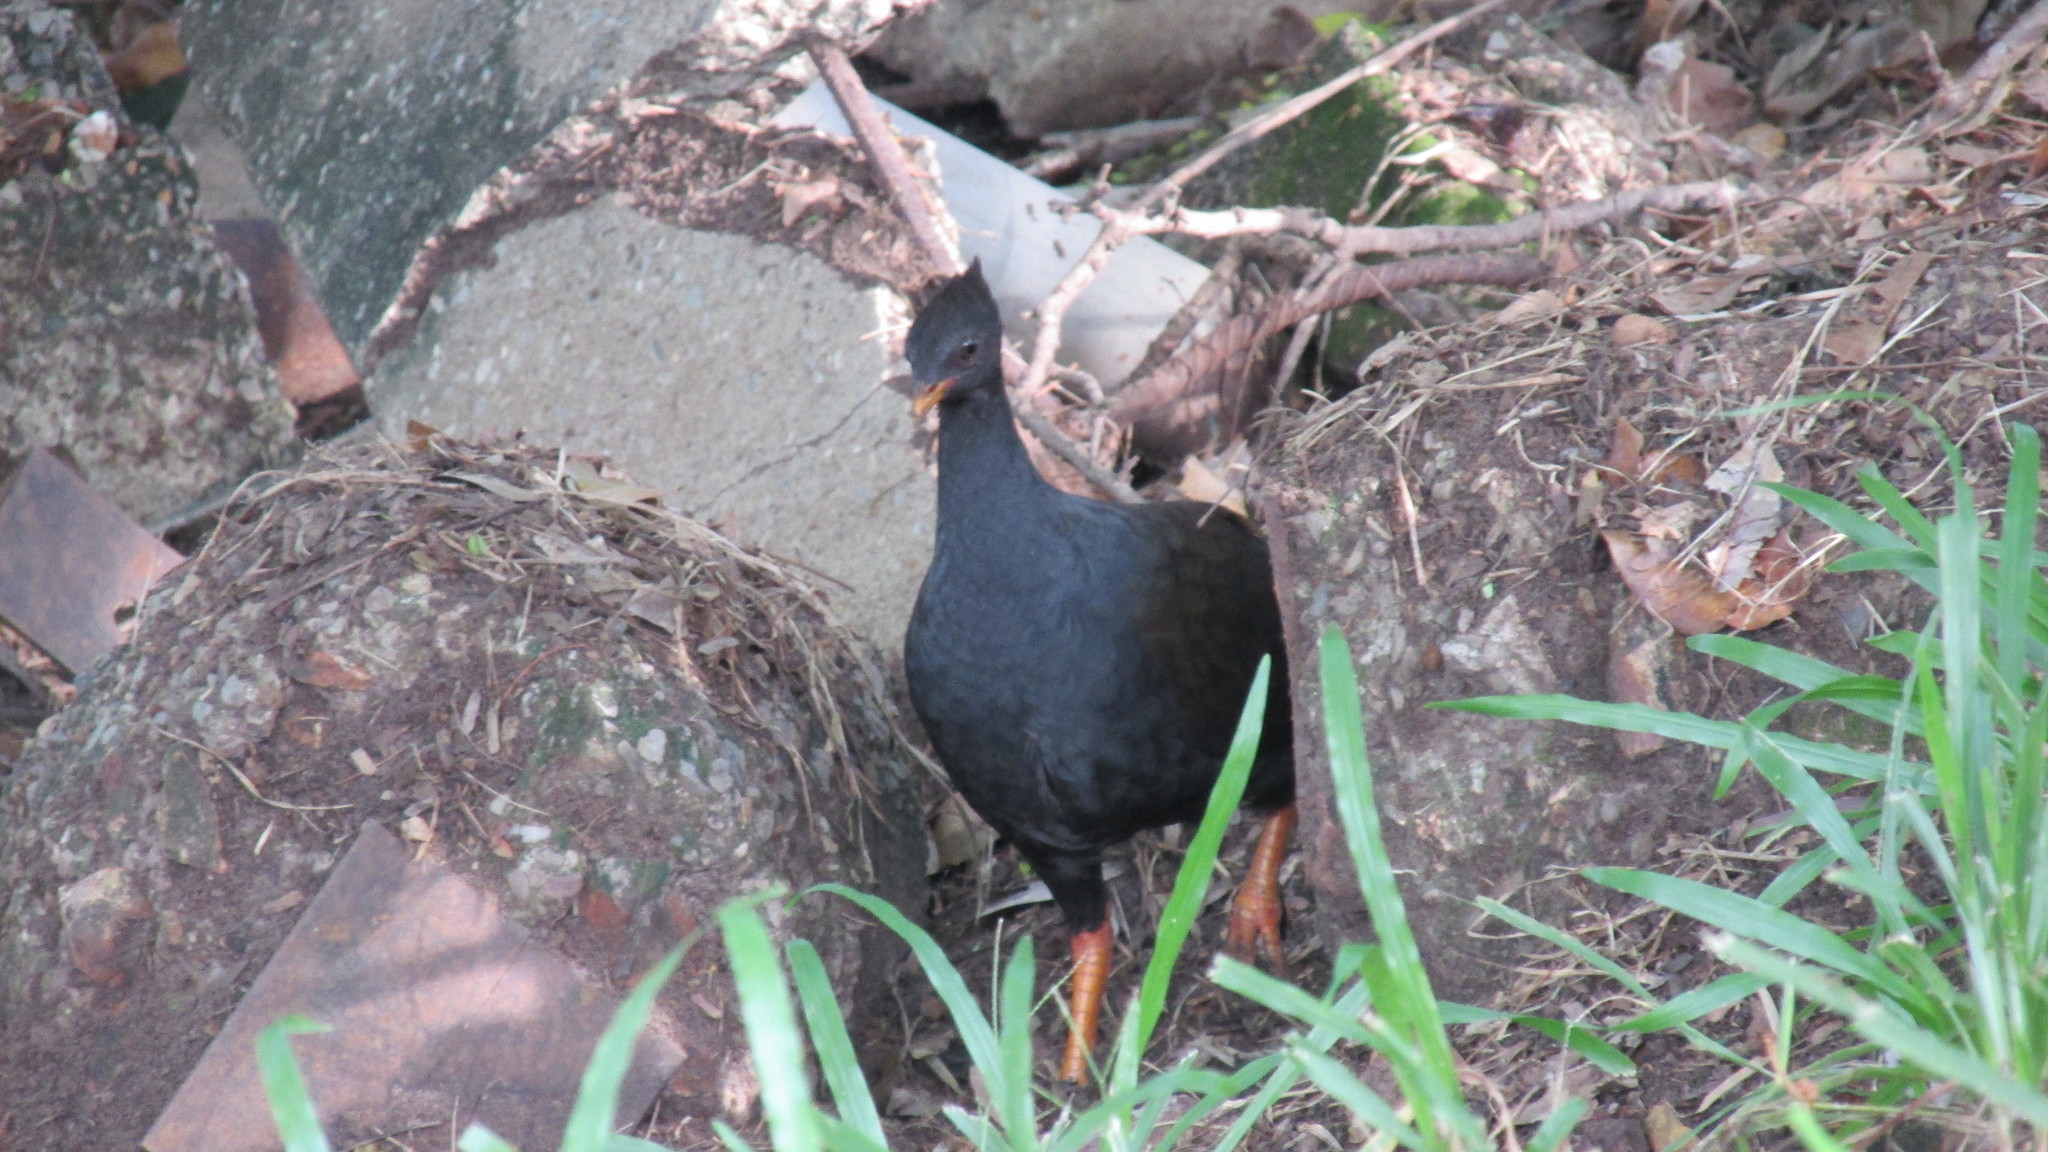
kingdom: Animalia
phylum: Chordata
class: Aves
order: Galliformes
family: Megapodiidae
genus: Megapodius
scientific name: Megapodius reinwardt
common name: Orange-footed scrubfowl
